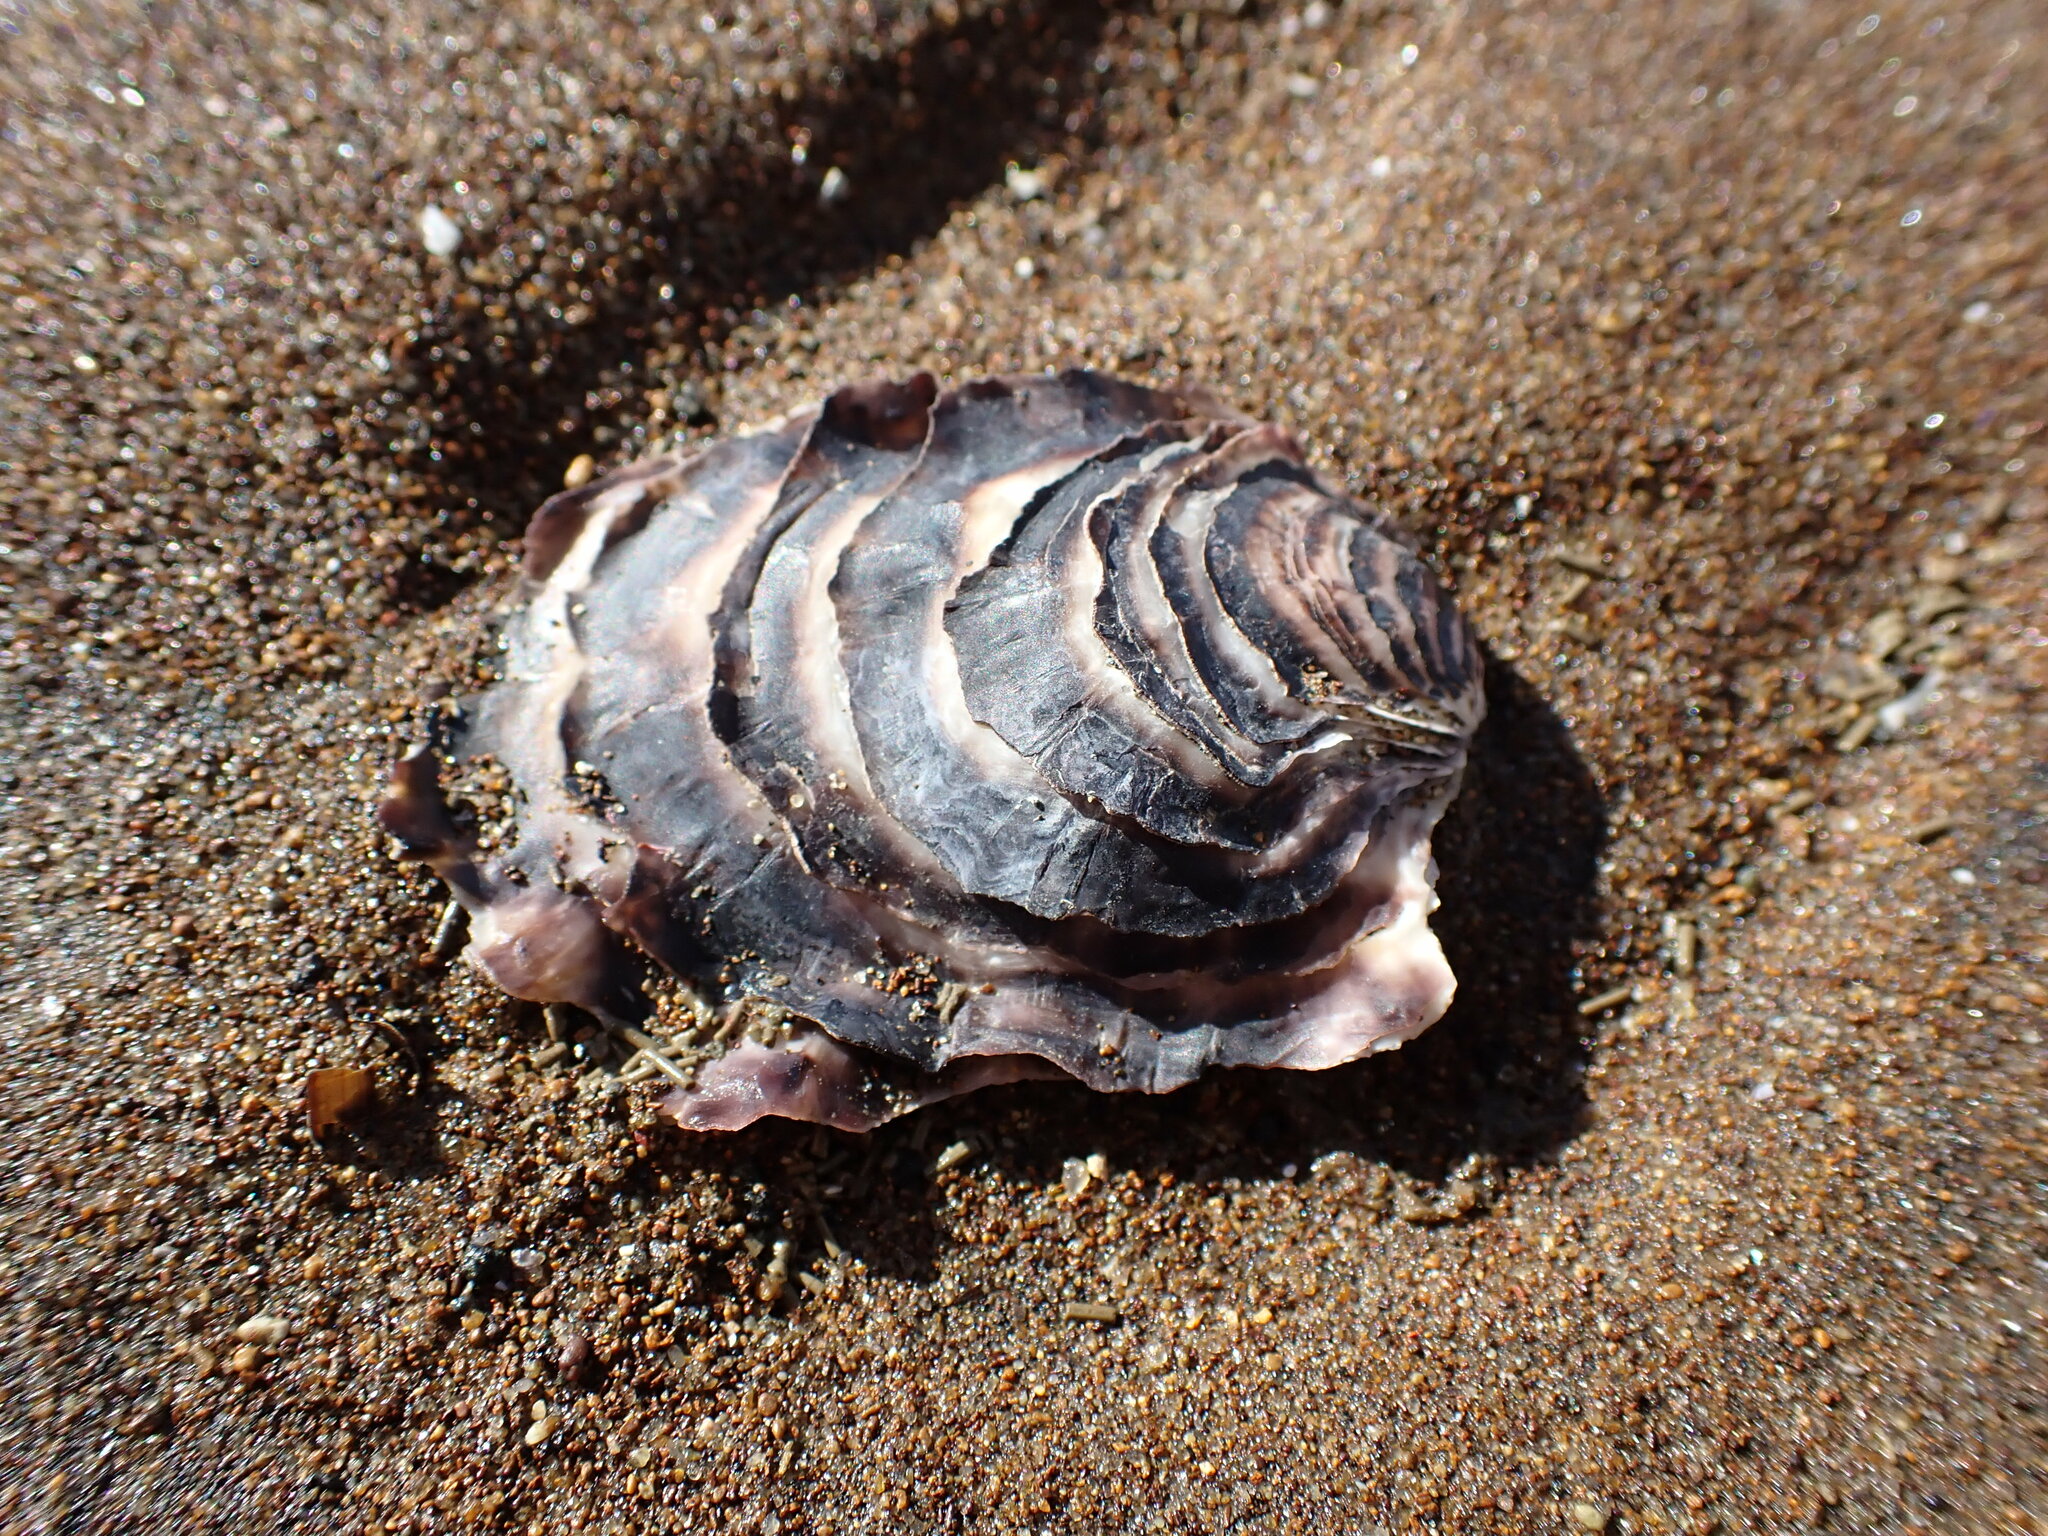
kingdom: Animalia
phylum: Mollusca
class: Bivalvia
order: Ostreida
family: Ostreidae
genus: Magallana
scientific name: Magallana gigas
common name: Pacific oyster
